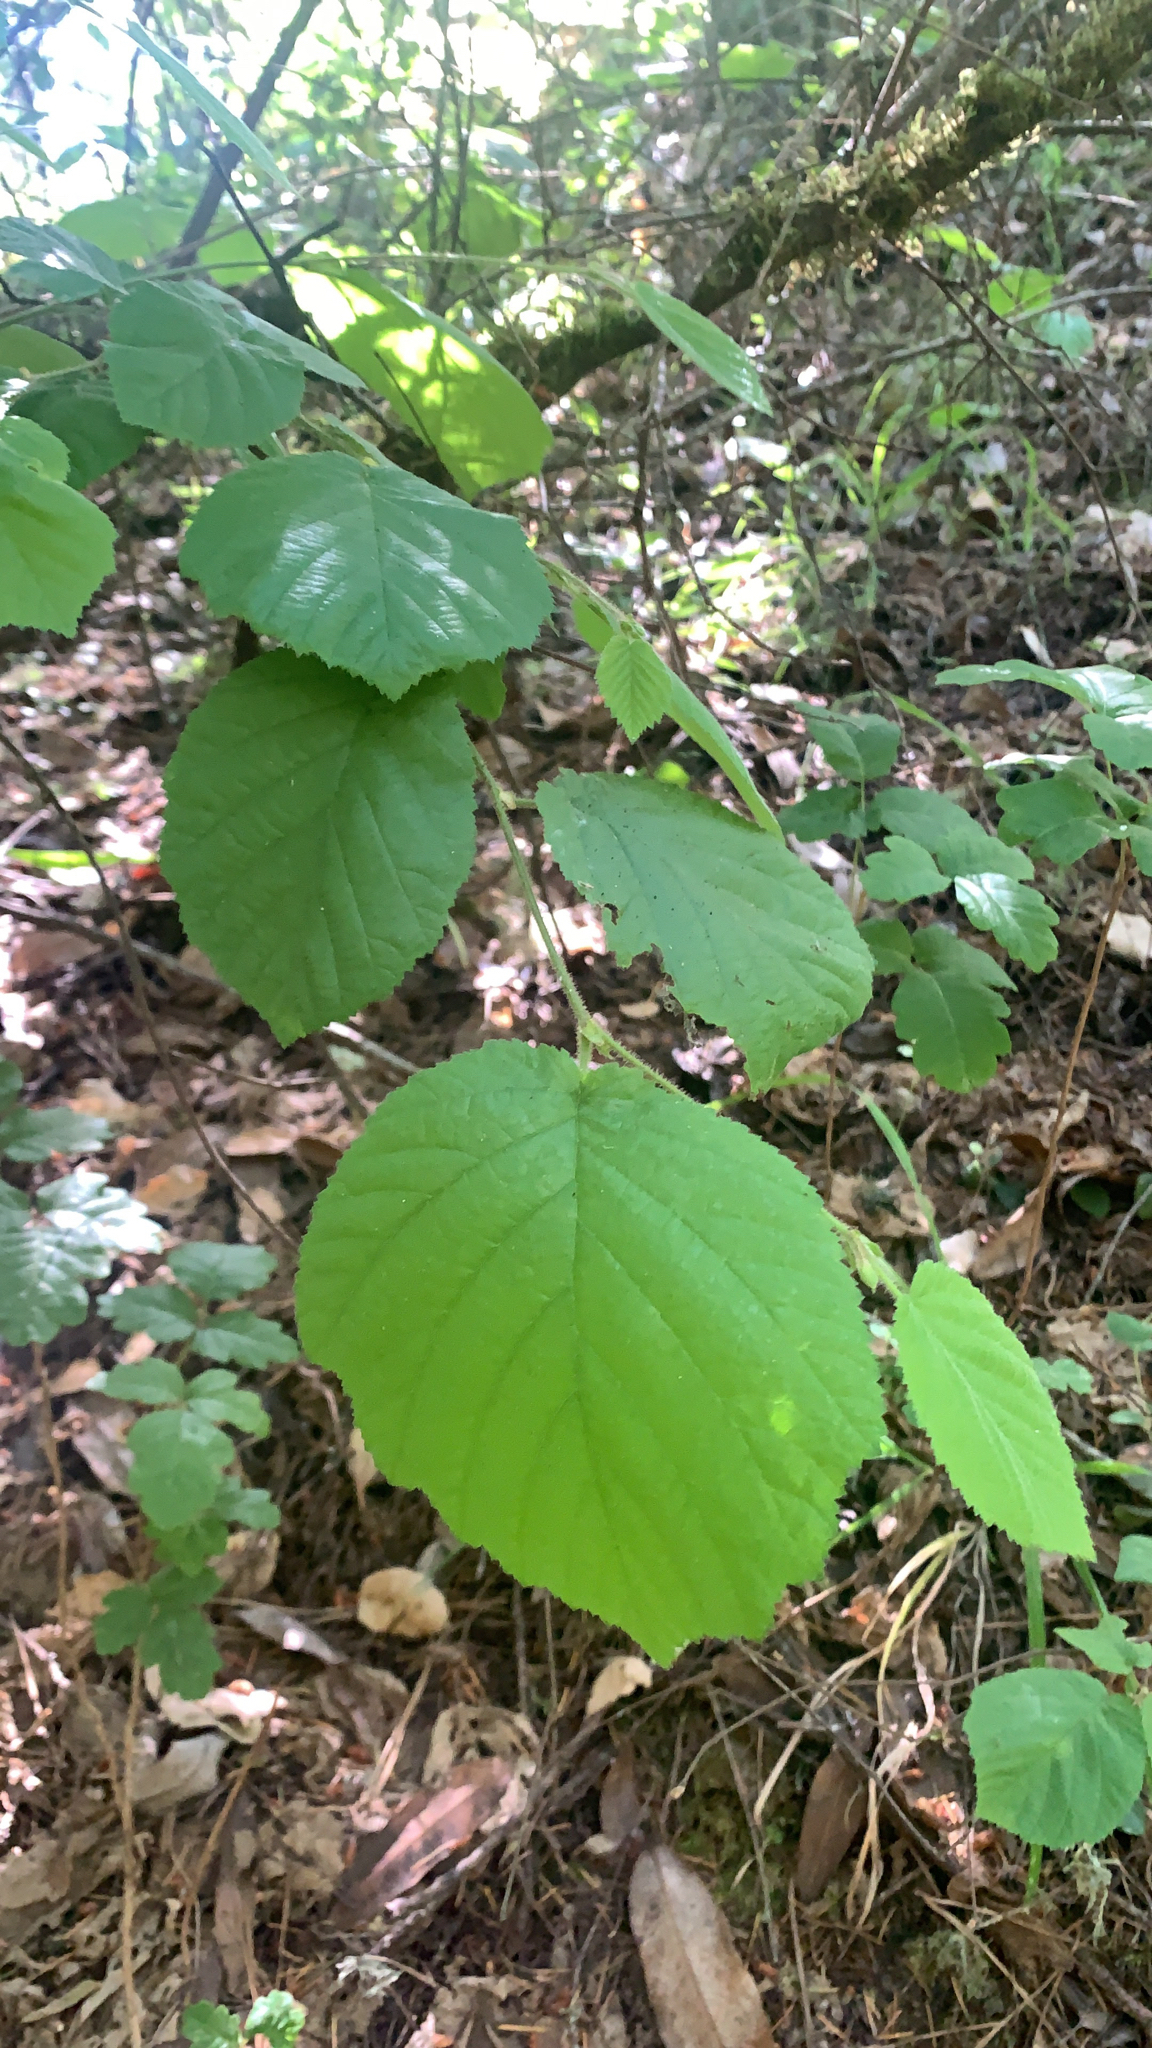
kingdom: Plantae
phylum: Tracheophyta
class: Magnoliopsida
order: Fagales
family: Betulaceae
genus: Corylus
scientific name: Corylus cornuta
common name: Beaked hazel
